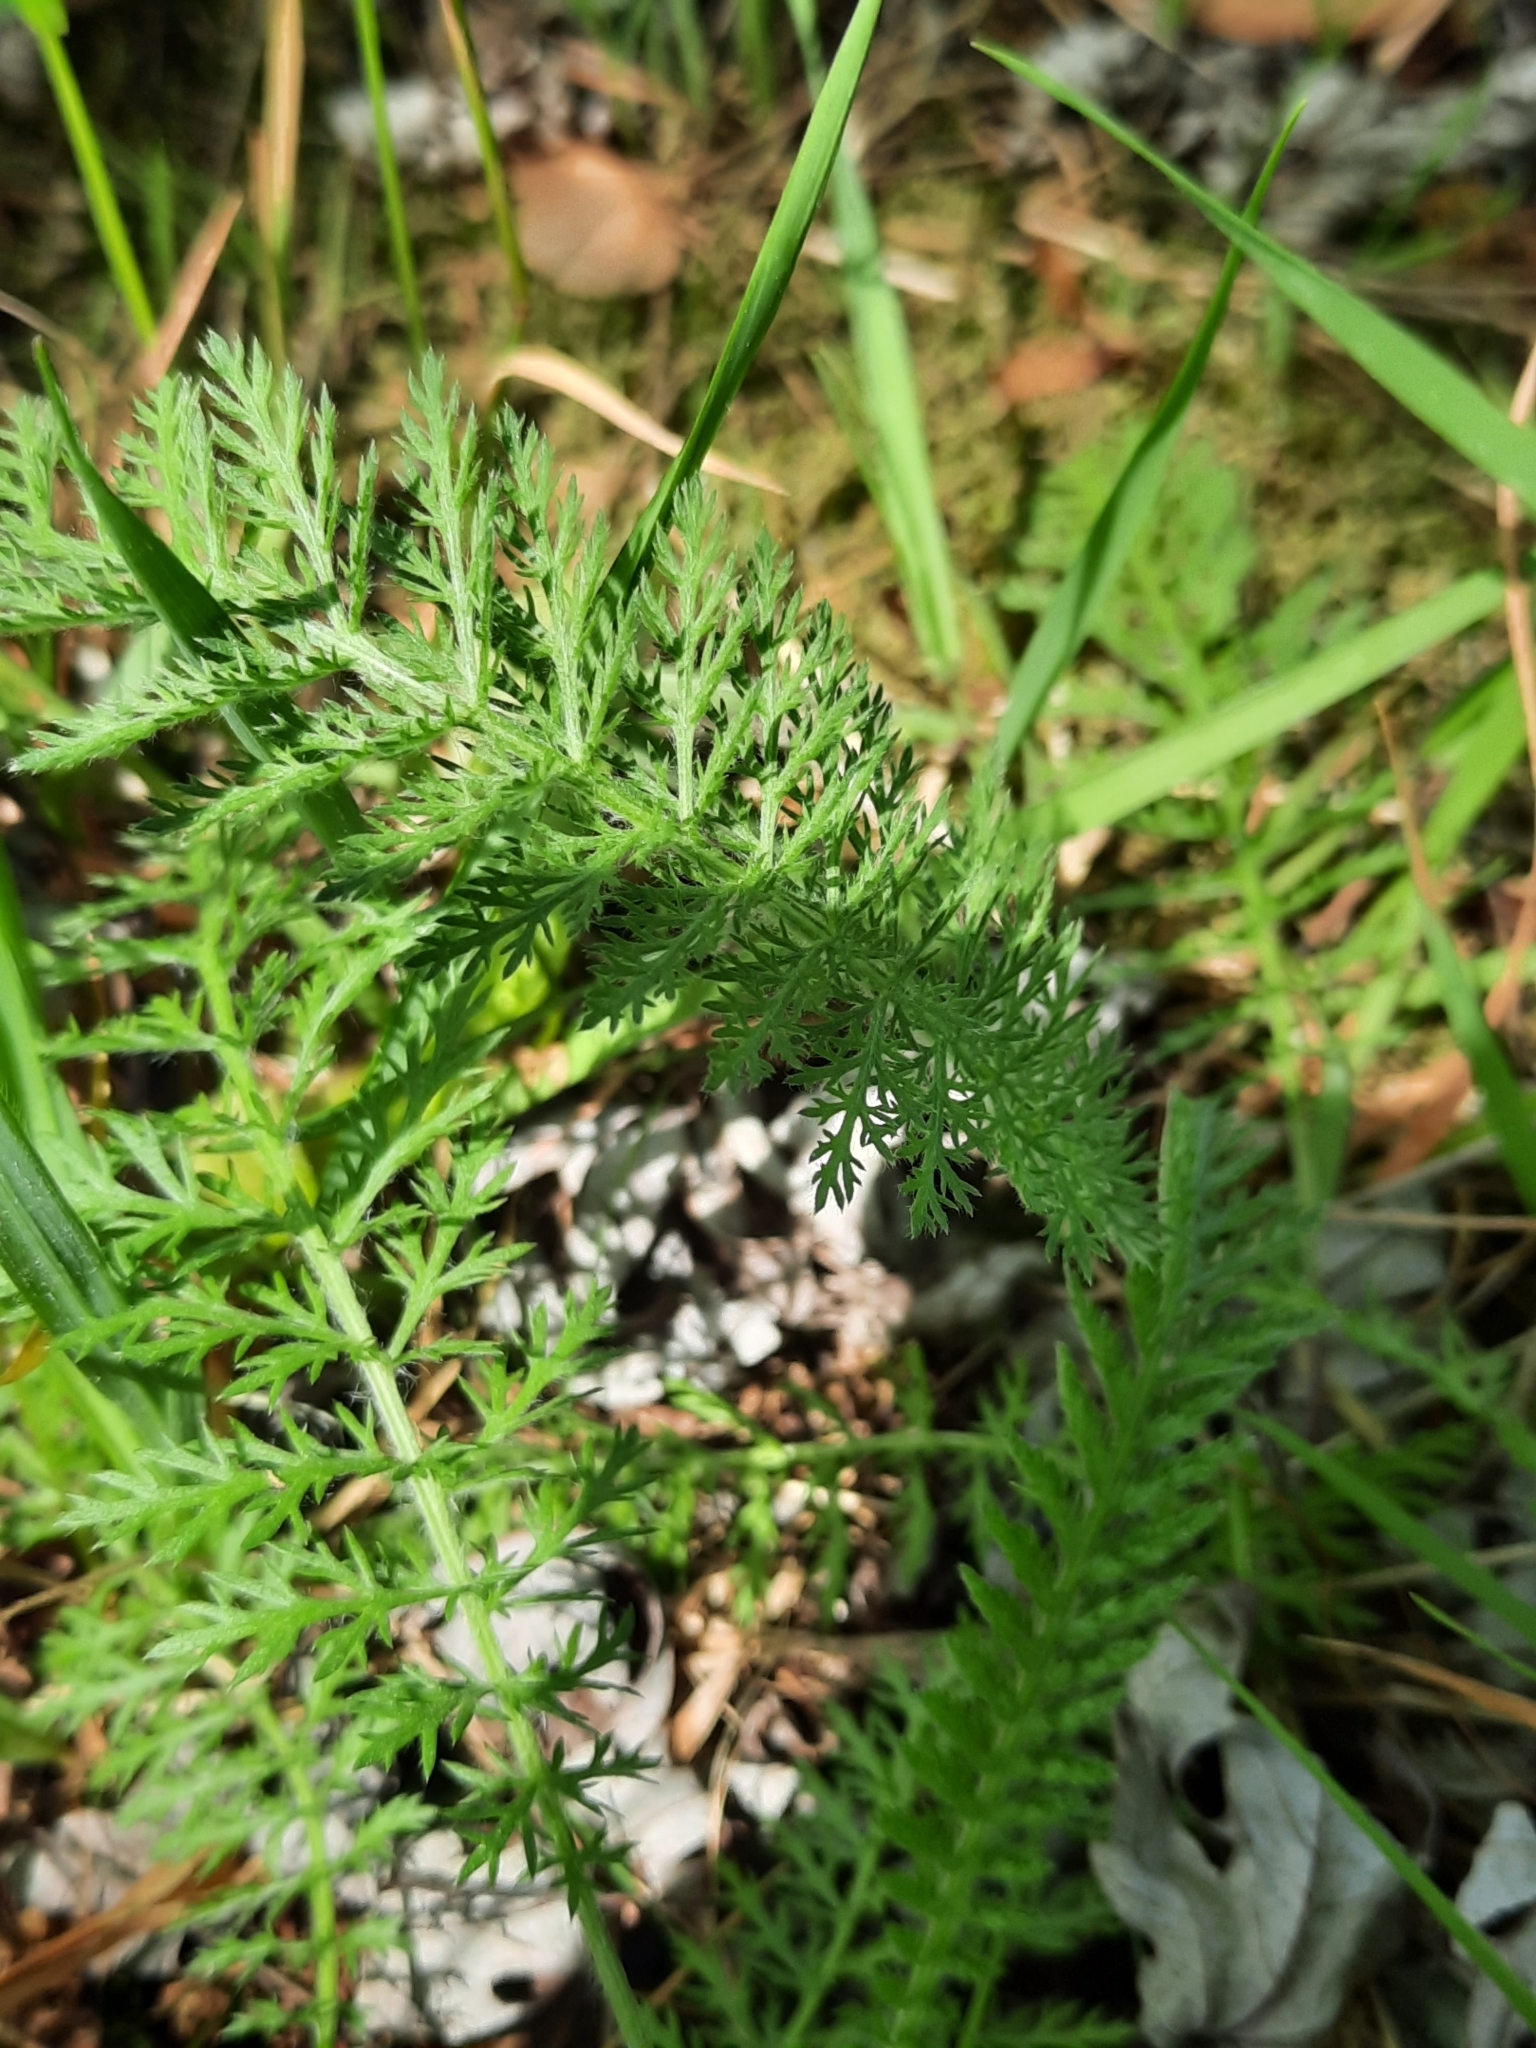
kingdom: Plantae
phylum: Tracheophyta
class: Magnoliopsida
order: Asterales
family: Asteraceae
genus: Achillea
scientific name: Achillea millefolium
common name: Yarrow
